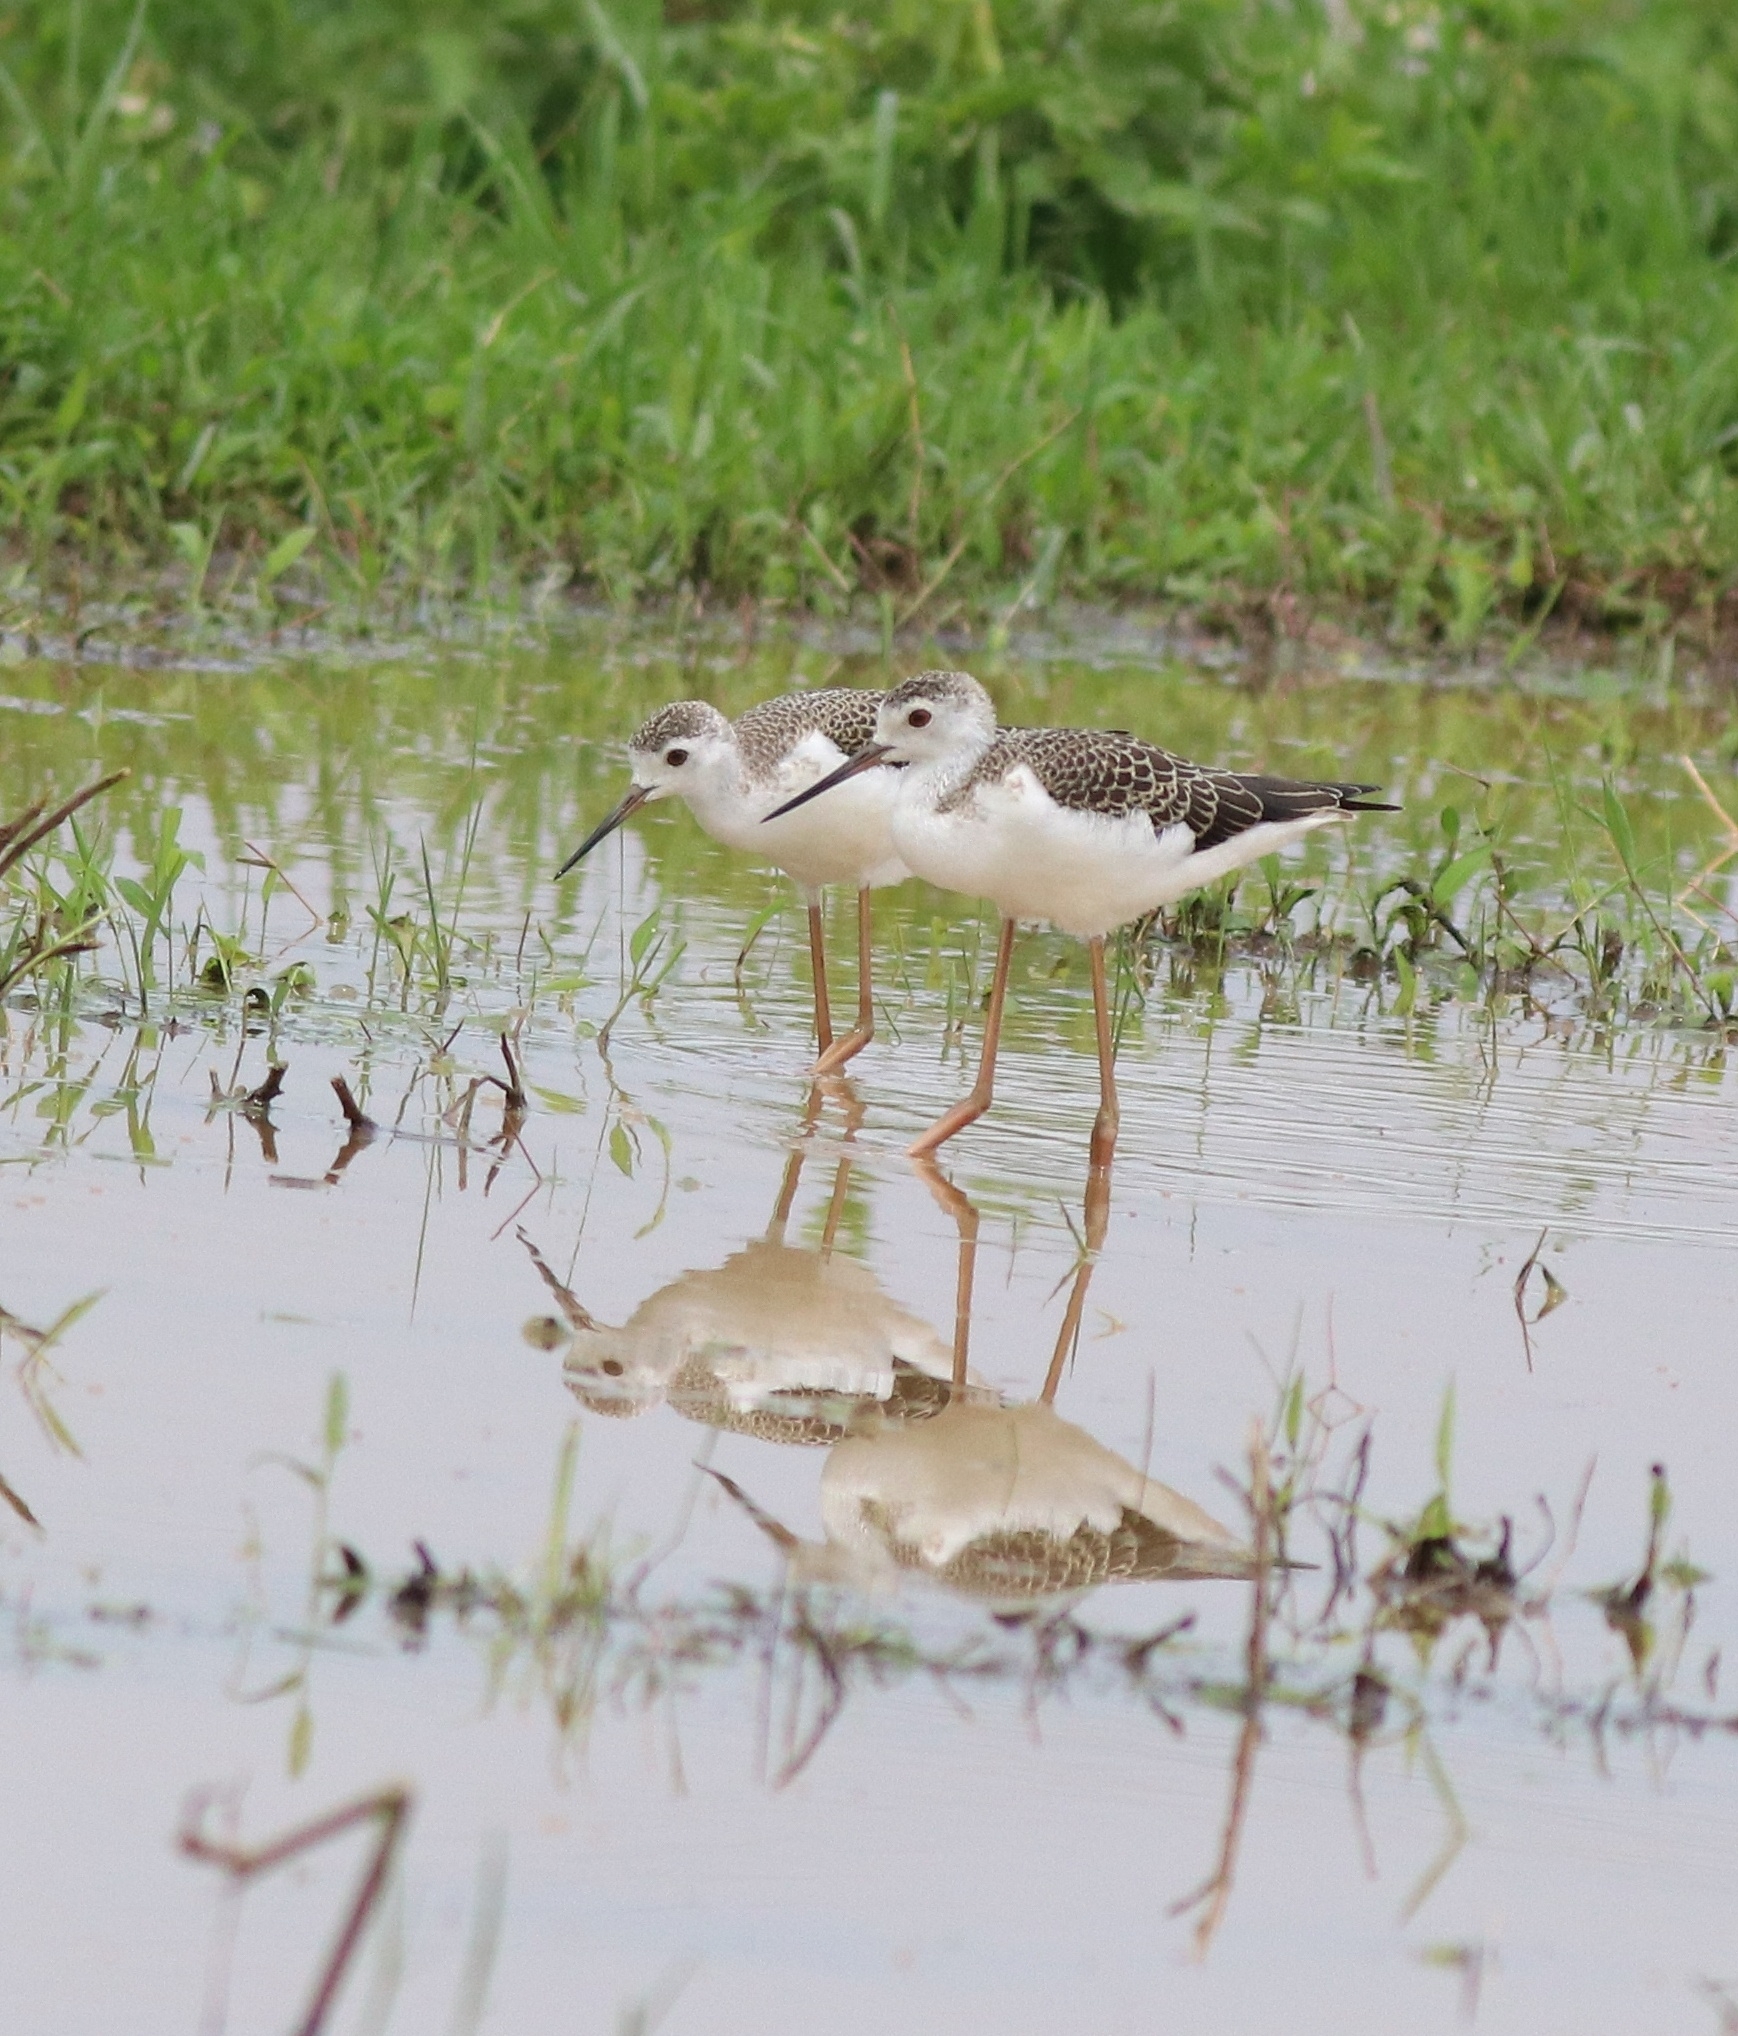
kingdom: Animalia
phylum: Chordata
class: Aves
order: Charadriiformes
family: Recurvirostridae
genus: Himantopus
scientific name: Himantopus himantopus
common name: Black-winged stilt
